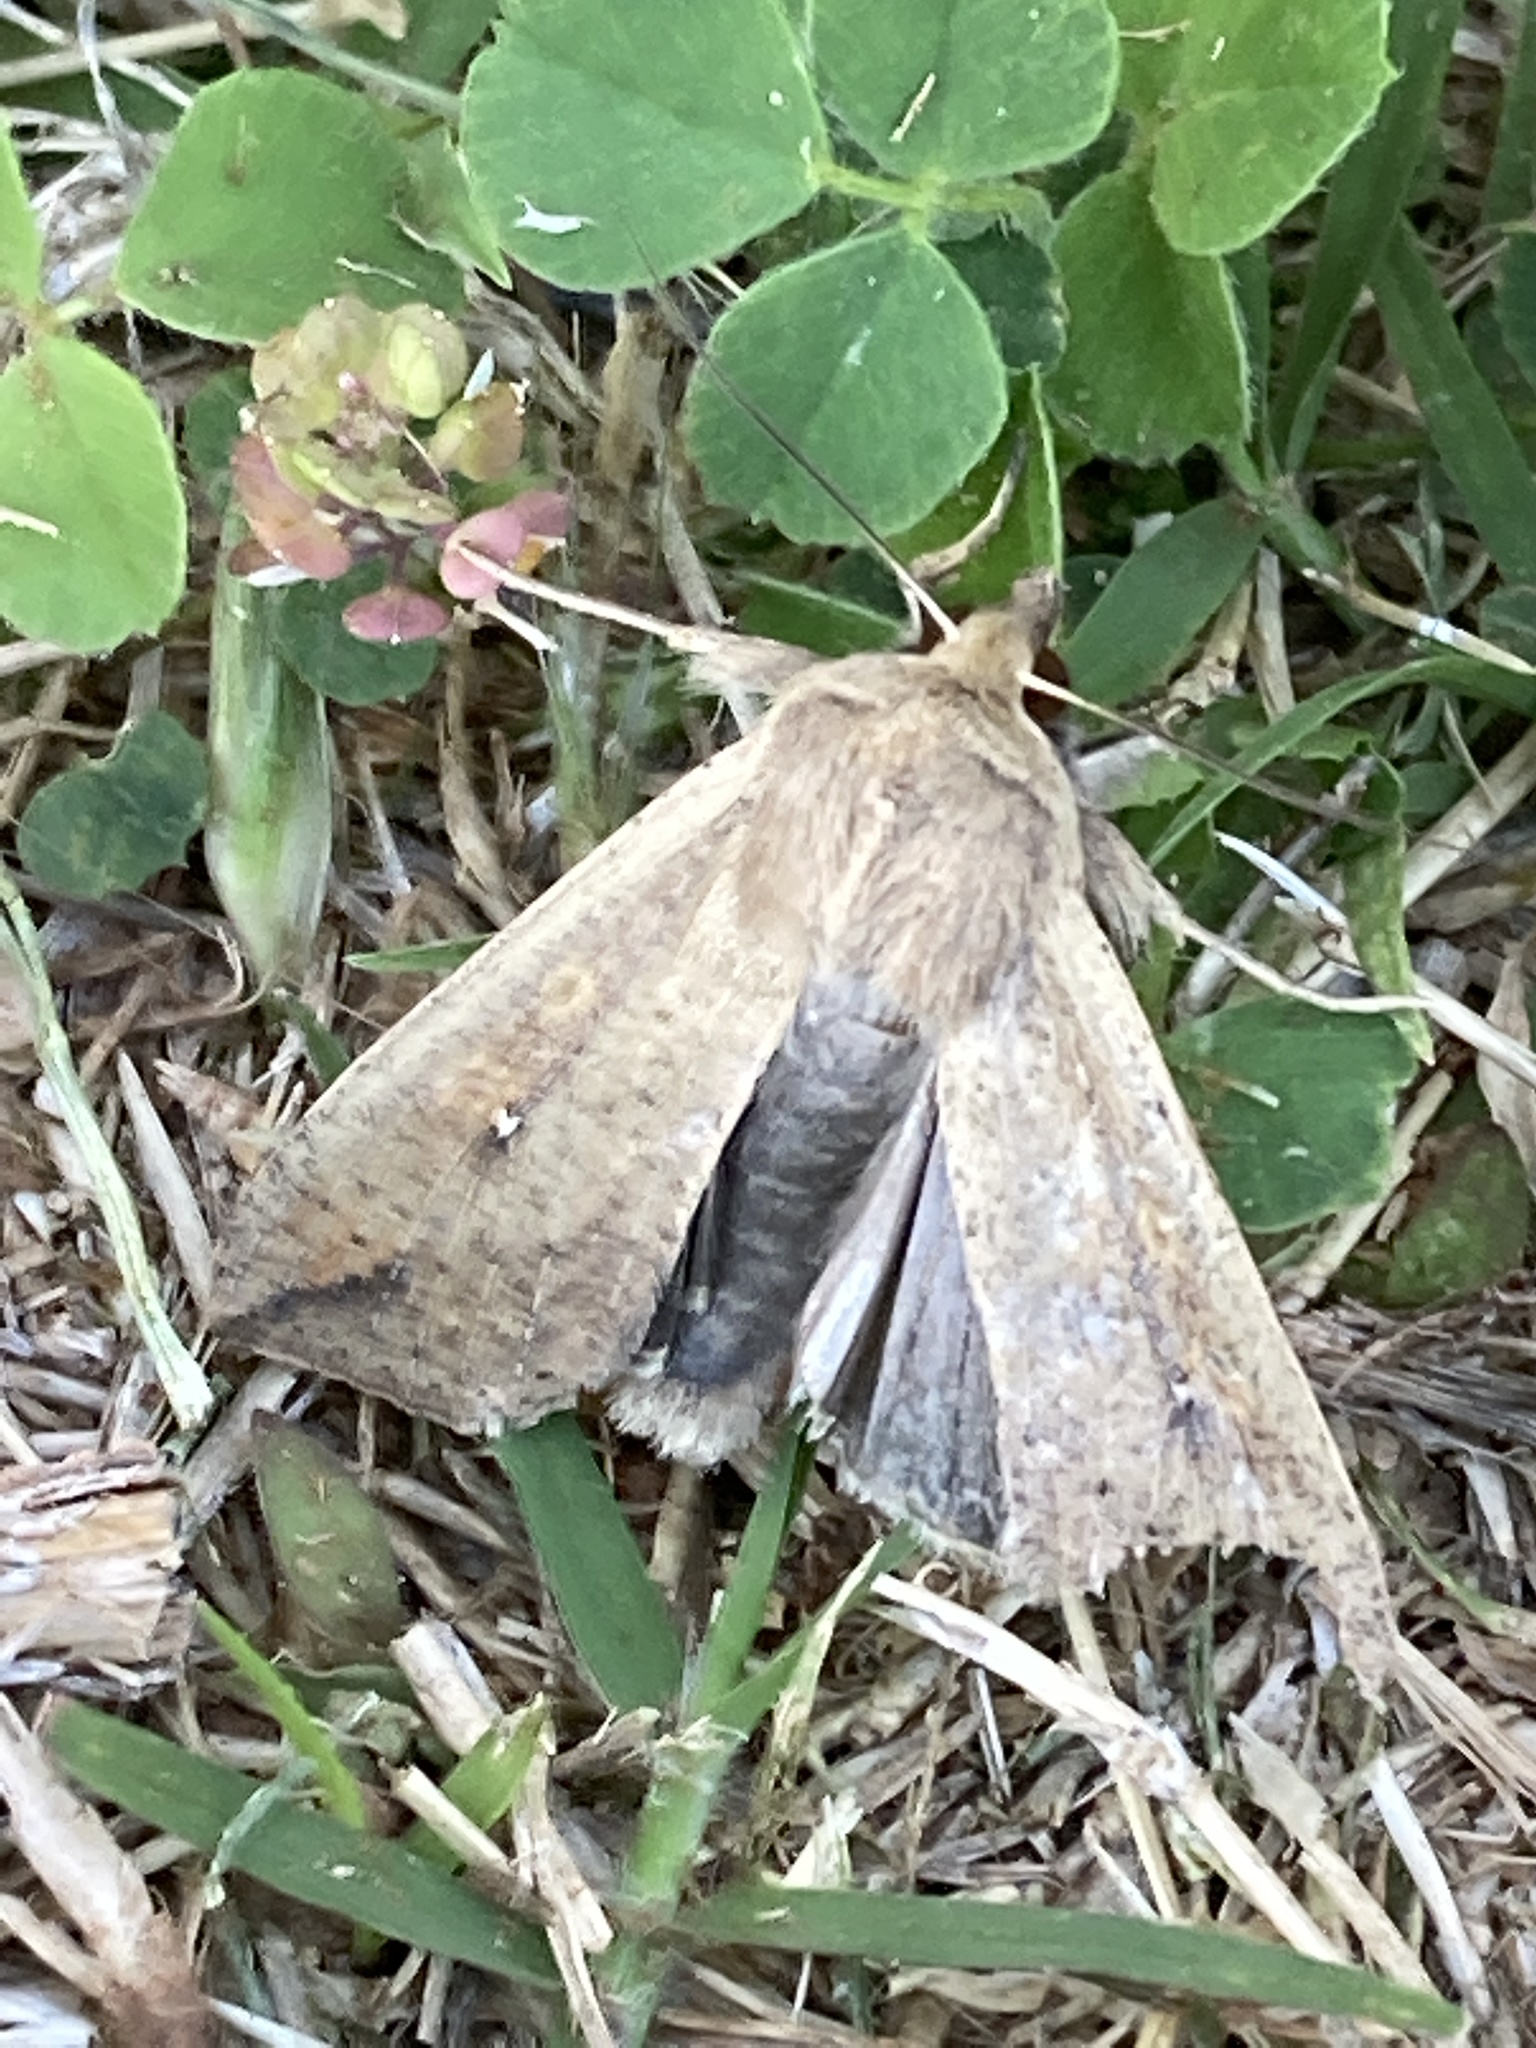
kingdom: Animalia
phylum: Arthropoda
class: Insecta
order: Lepidoptera
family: Noctuidae
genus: Mythimna
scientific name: Mythimna unipuncta
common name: White-speck
